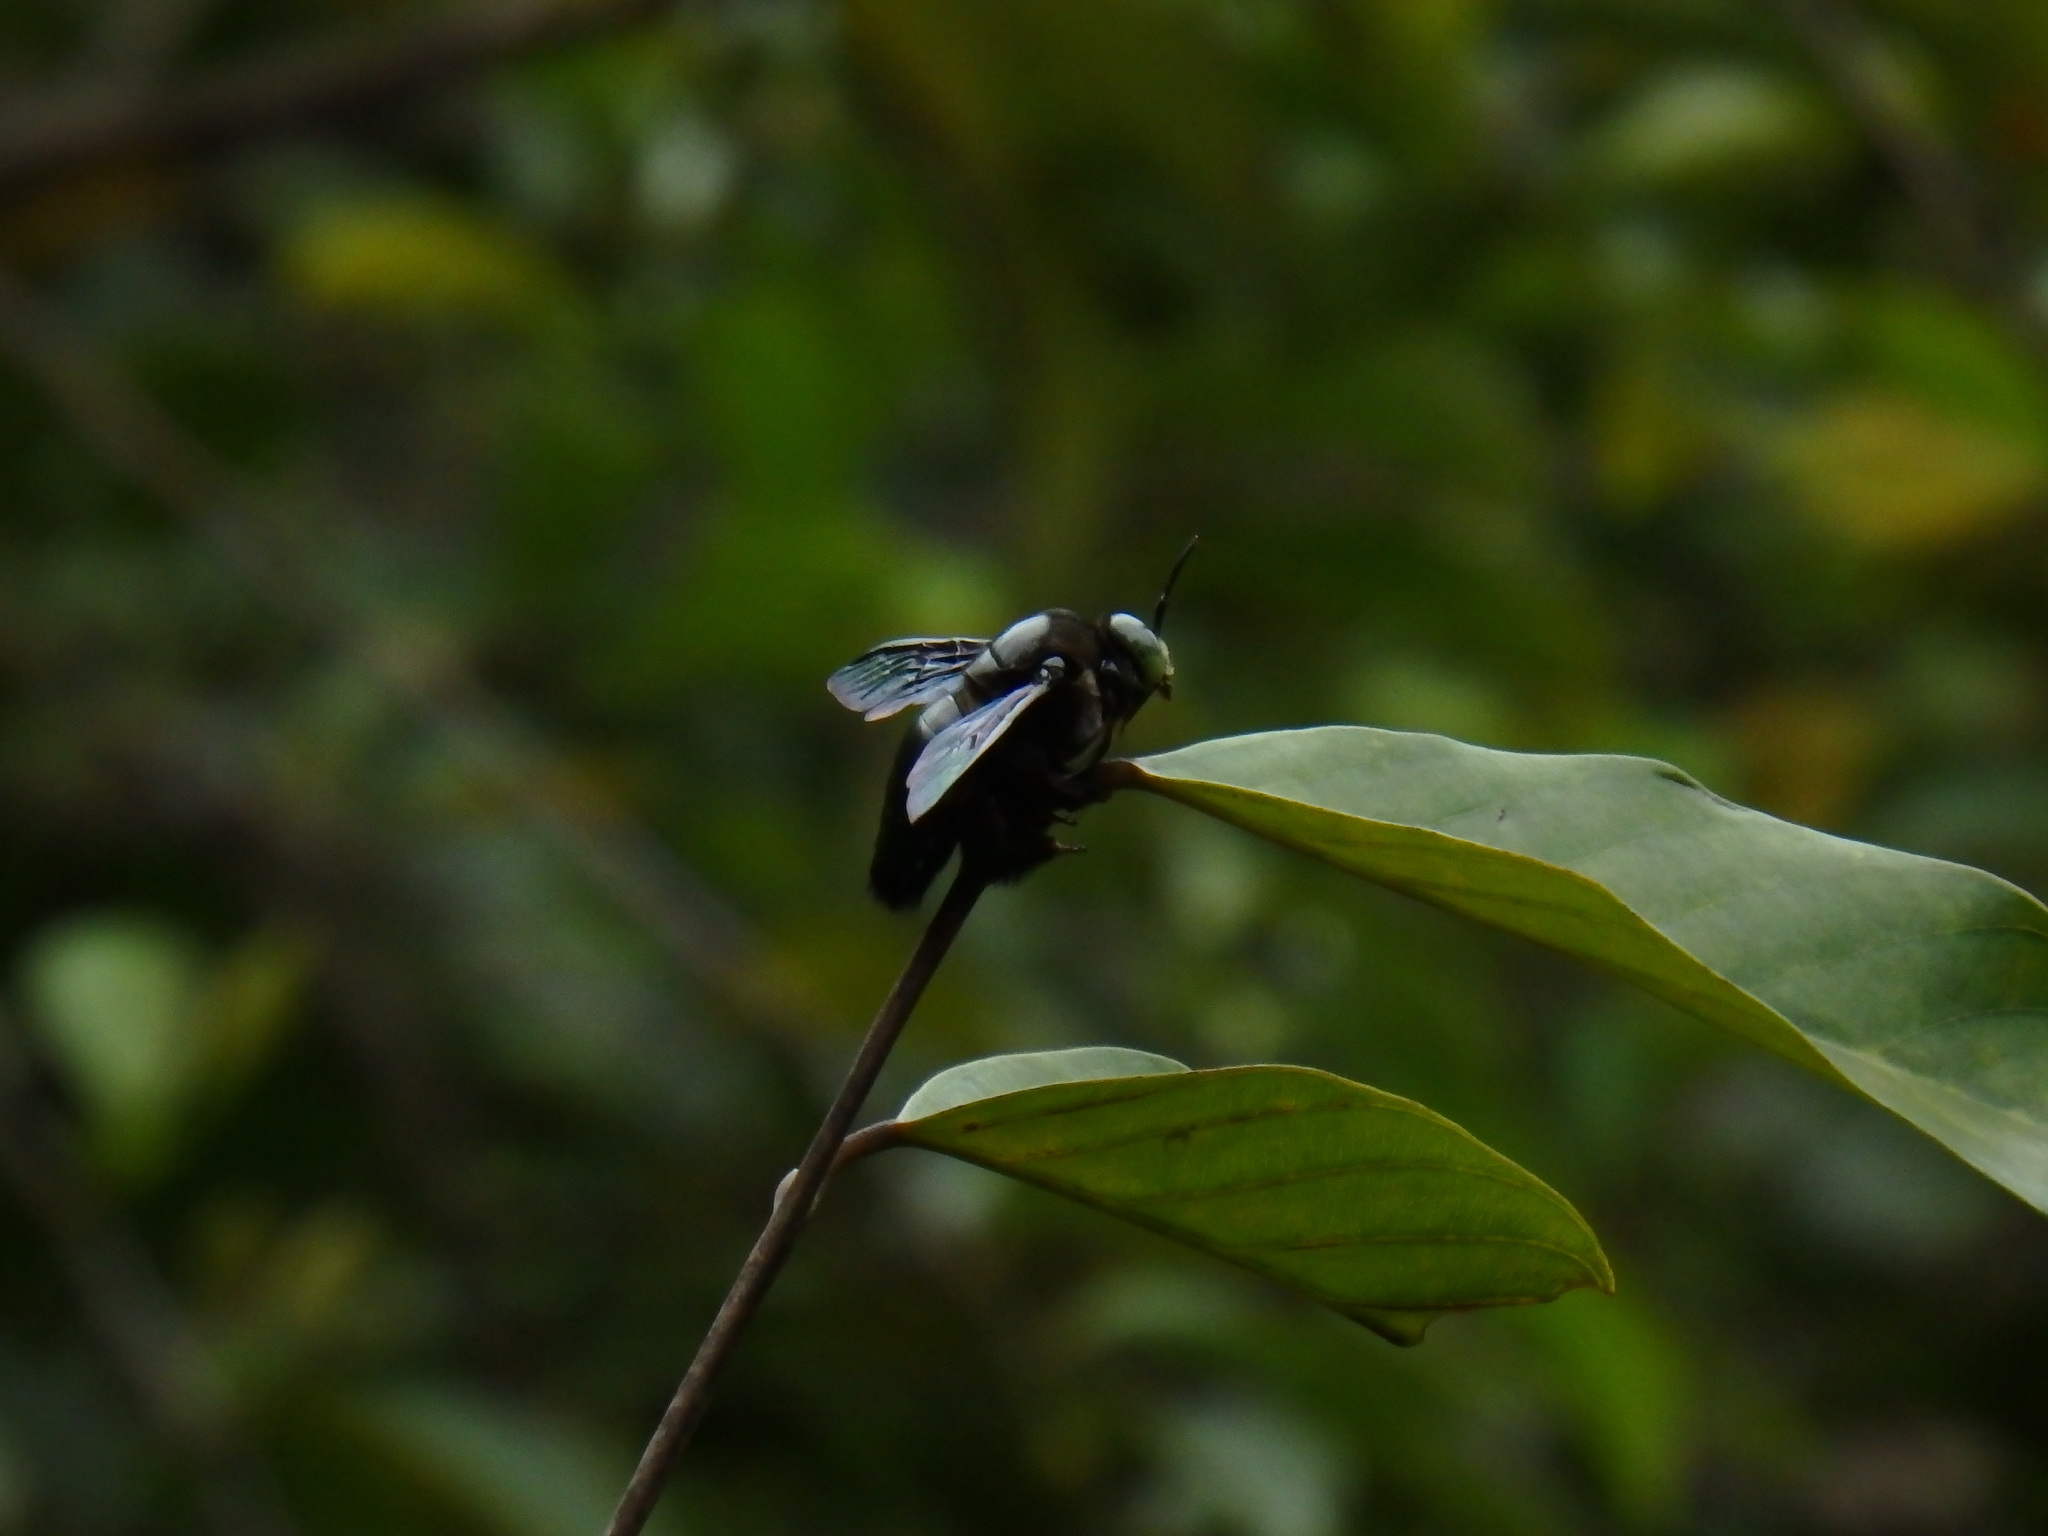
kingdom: Animalia
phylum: Arthropoda
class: Insecta
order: Hymenoptera
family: Apidae
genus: Xylocopa
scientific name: Xylocopa latipes
